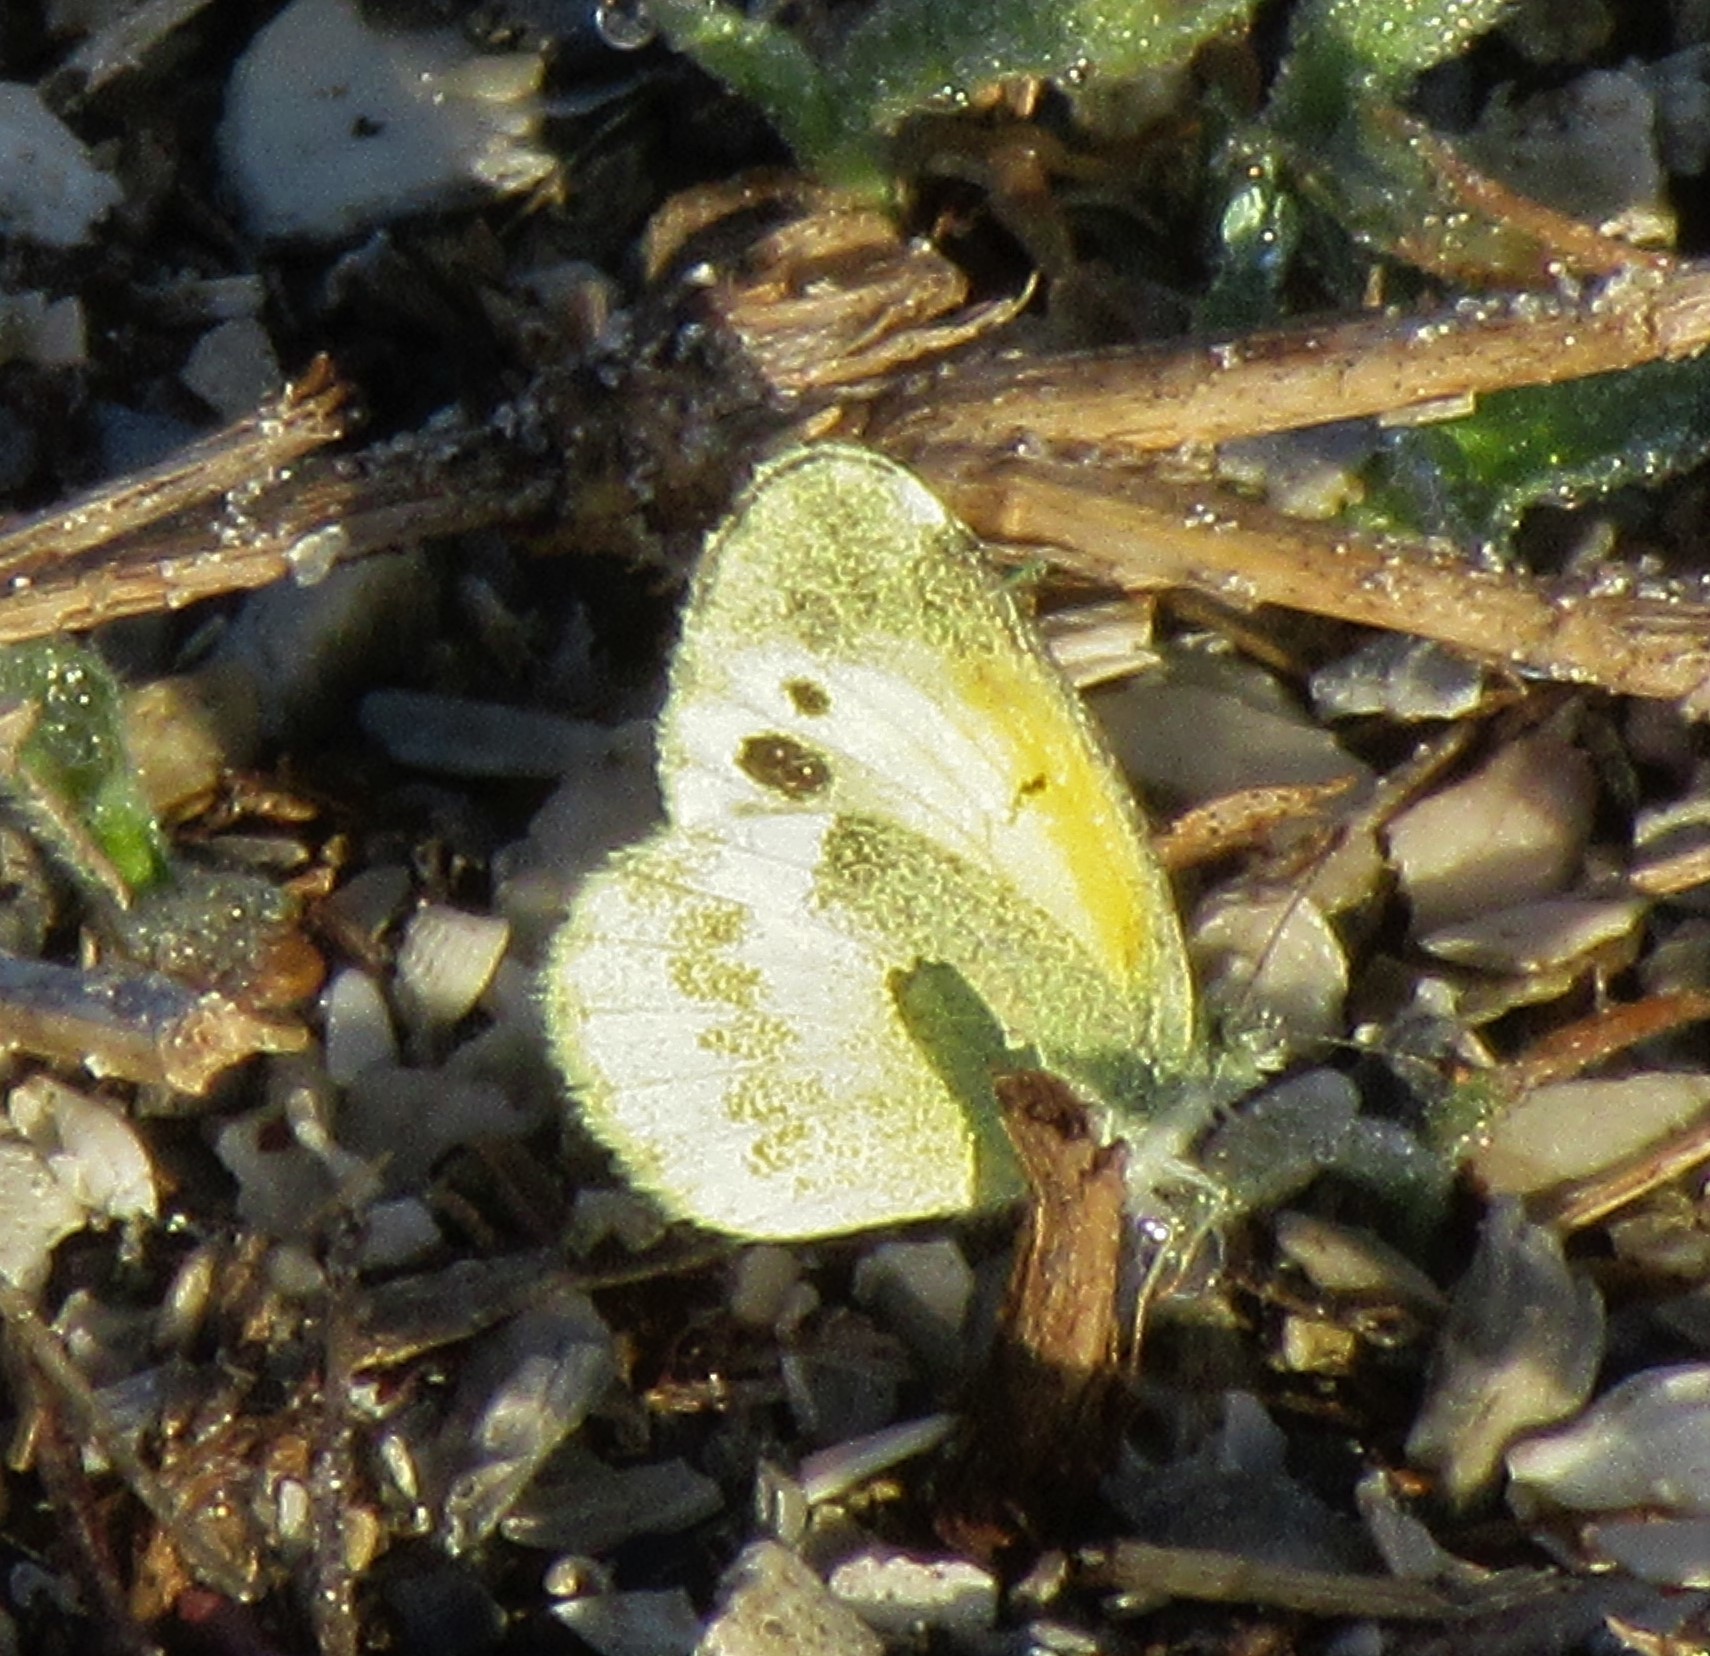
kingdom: Animalia
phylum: Arthropoda
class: Insecta
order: Lepidoptera
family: Pieridae
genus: Nathalis
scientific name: Nathalis iole
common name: Dainty sulphur
